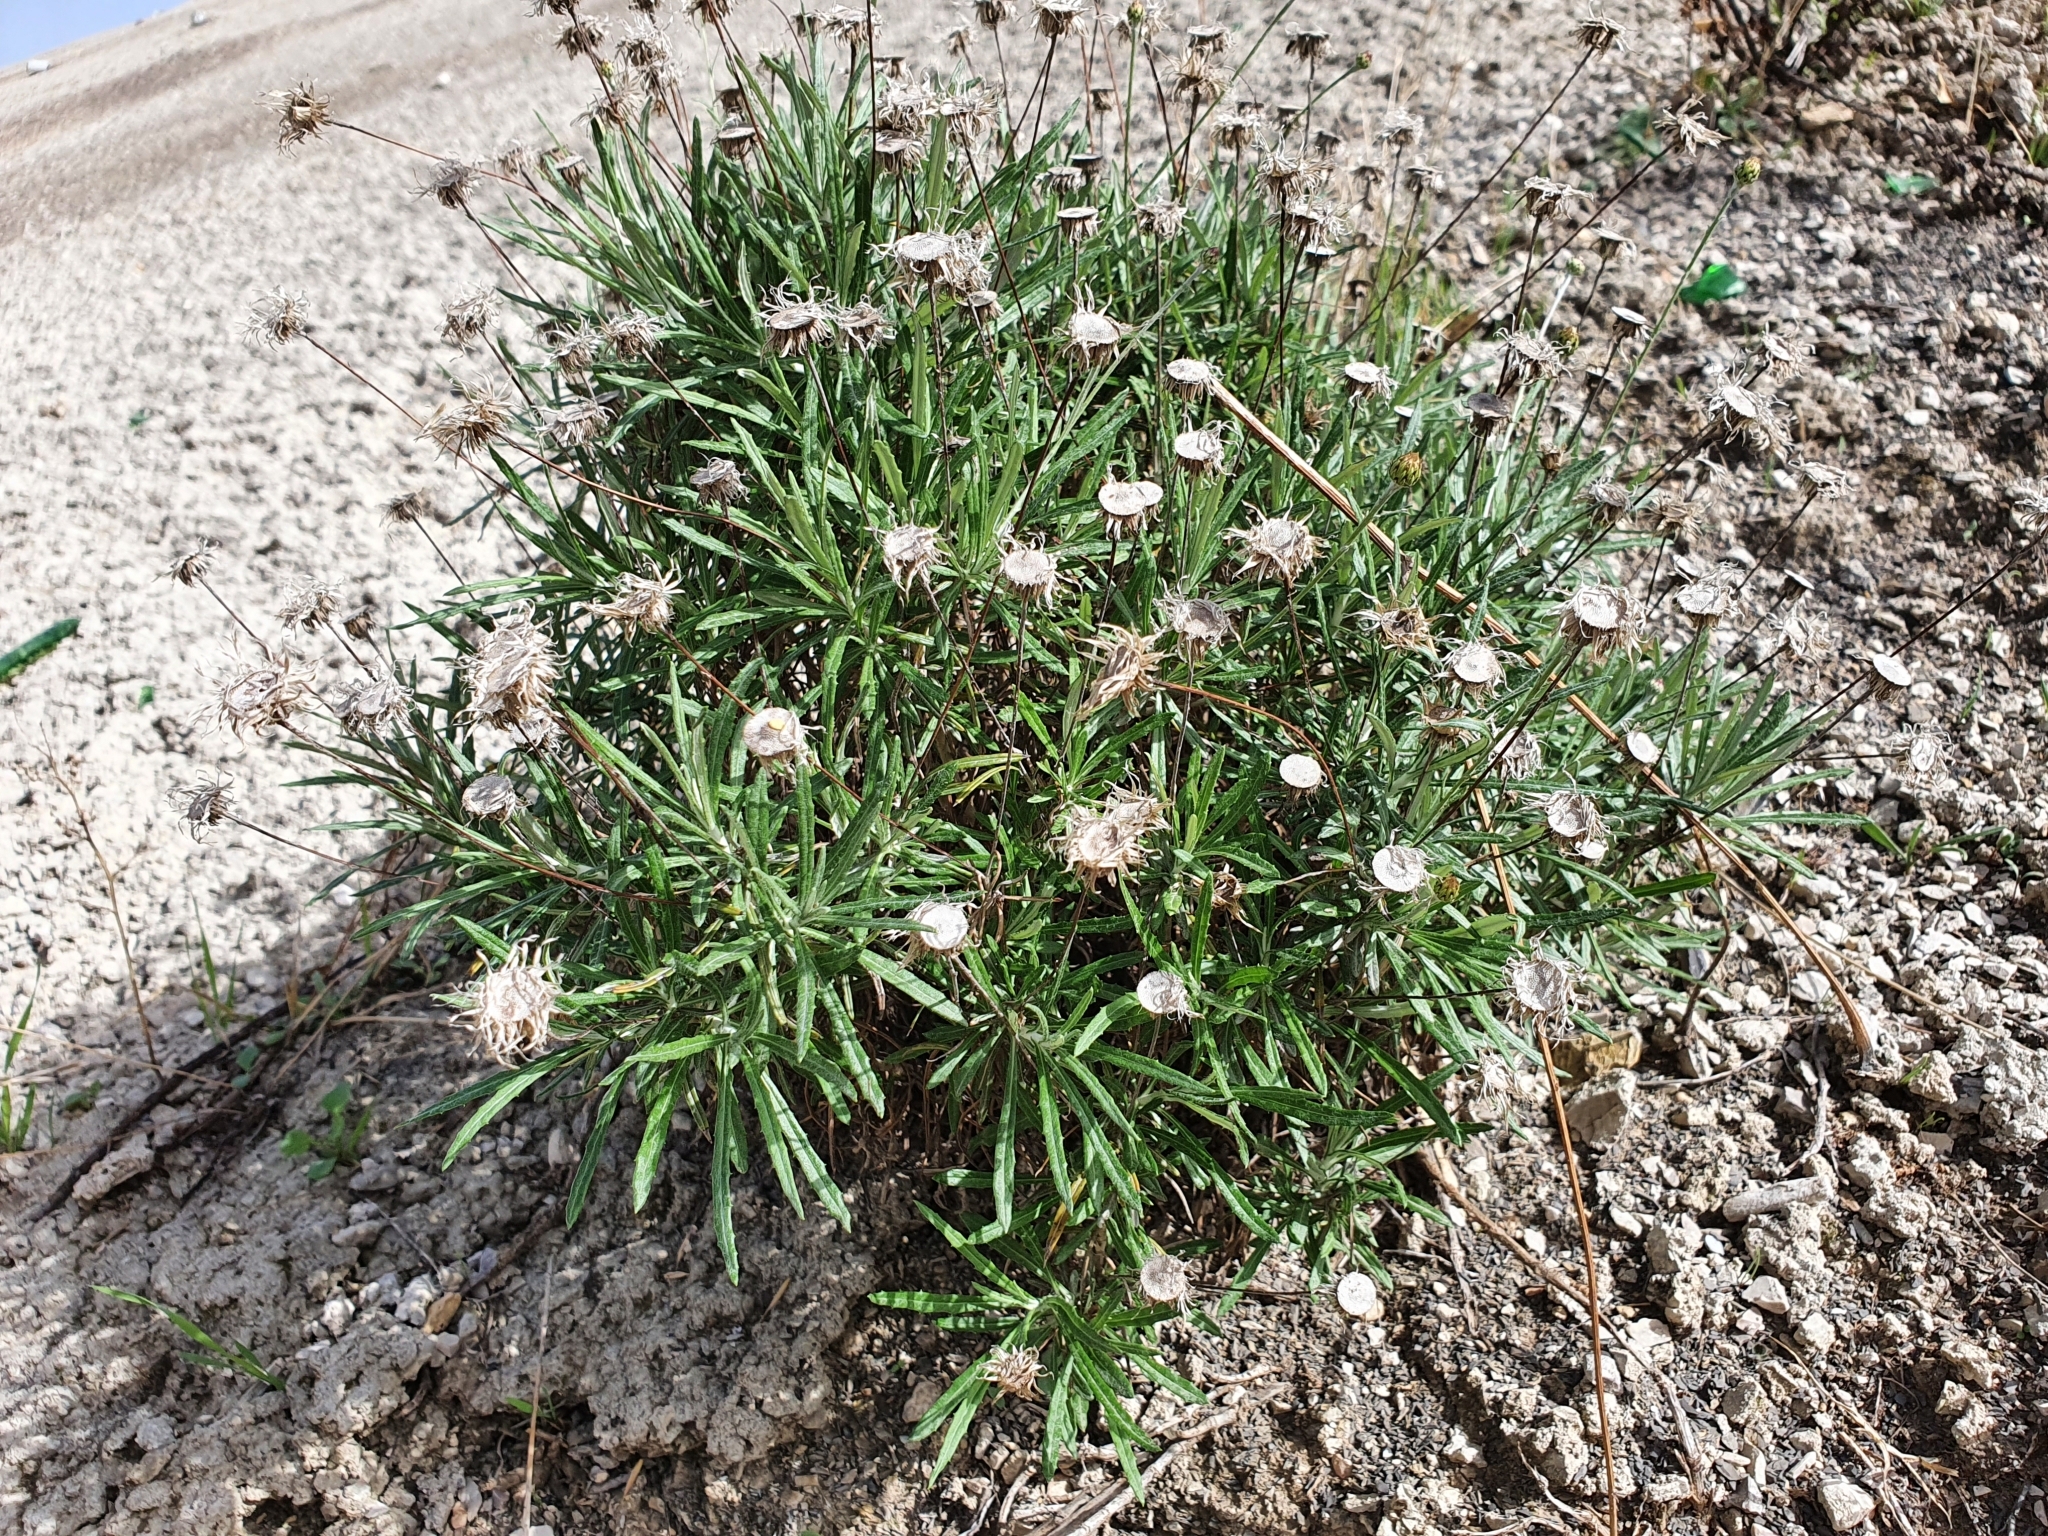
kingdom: Plantae
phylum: Tracheophyta
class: Magnoliopsida
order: Asterales
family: Asteraceae
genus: Phagnalon
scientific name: Phagnalon rupestre
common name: Rock phagnalon
